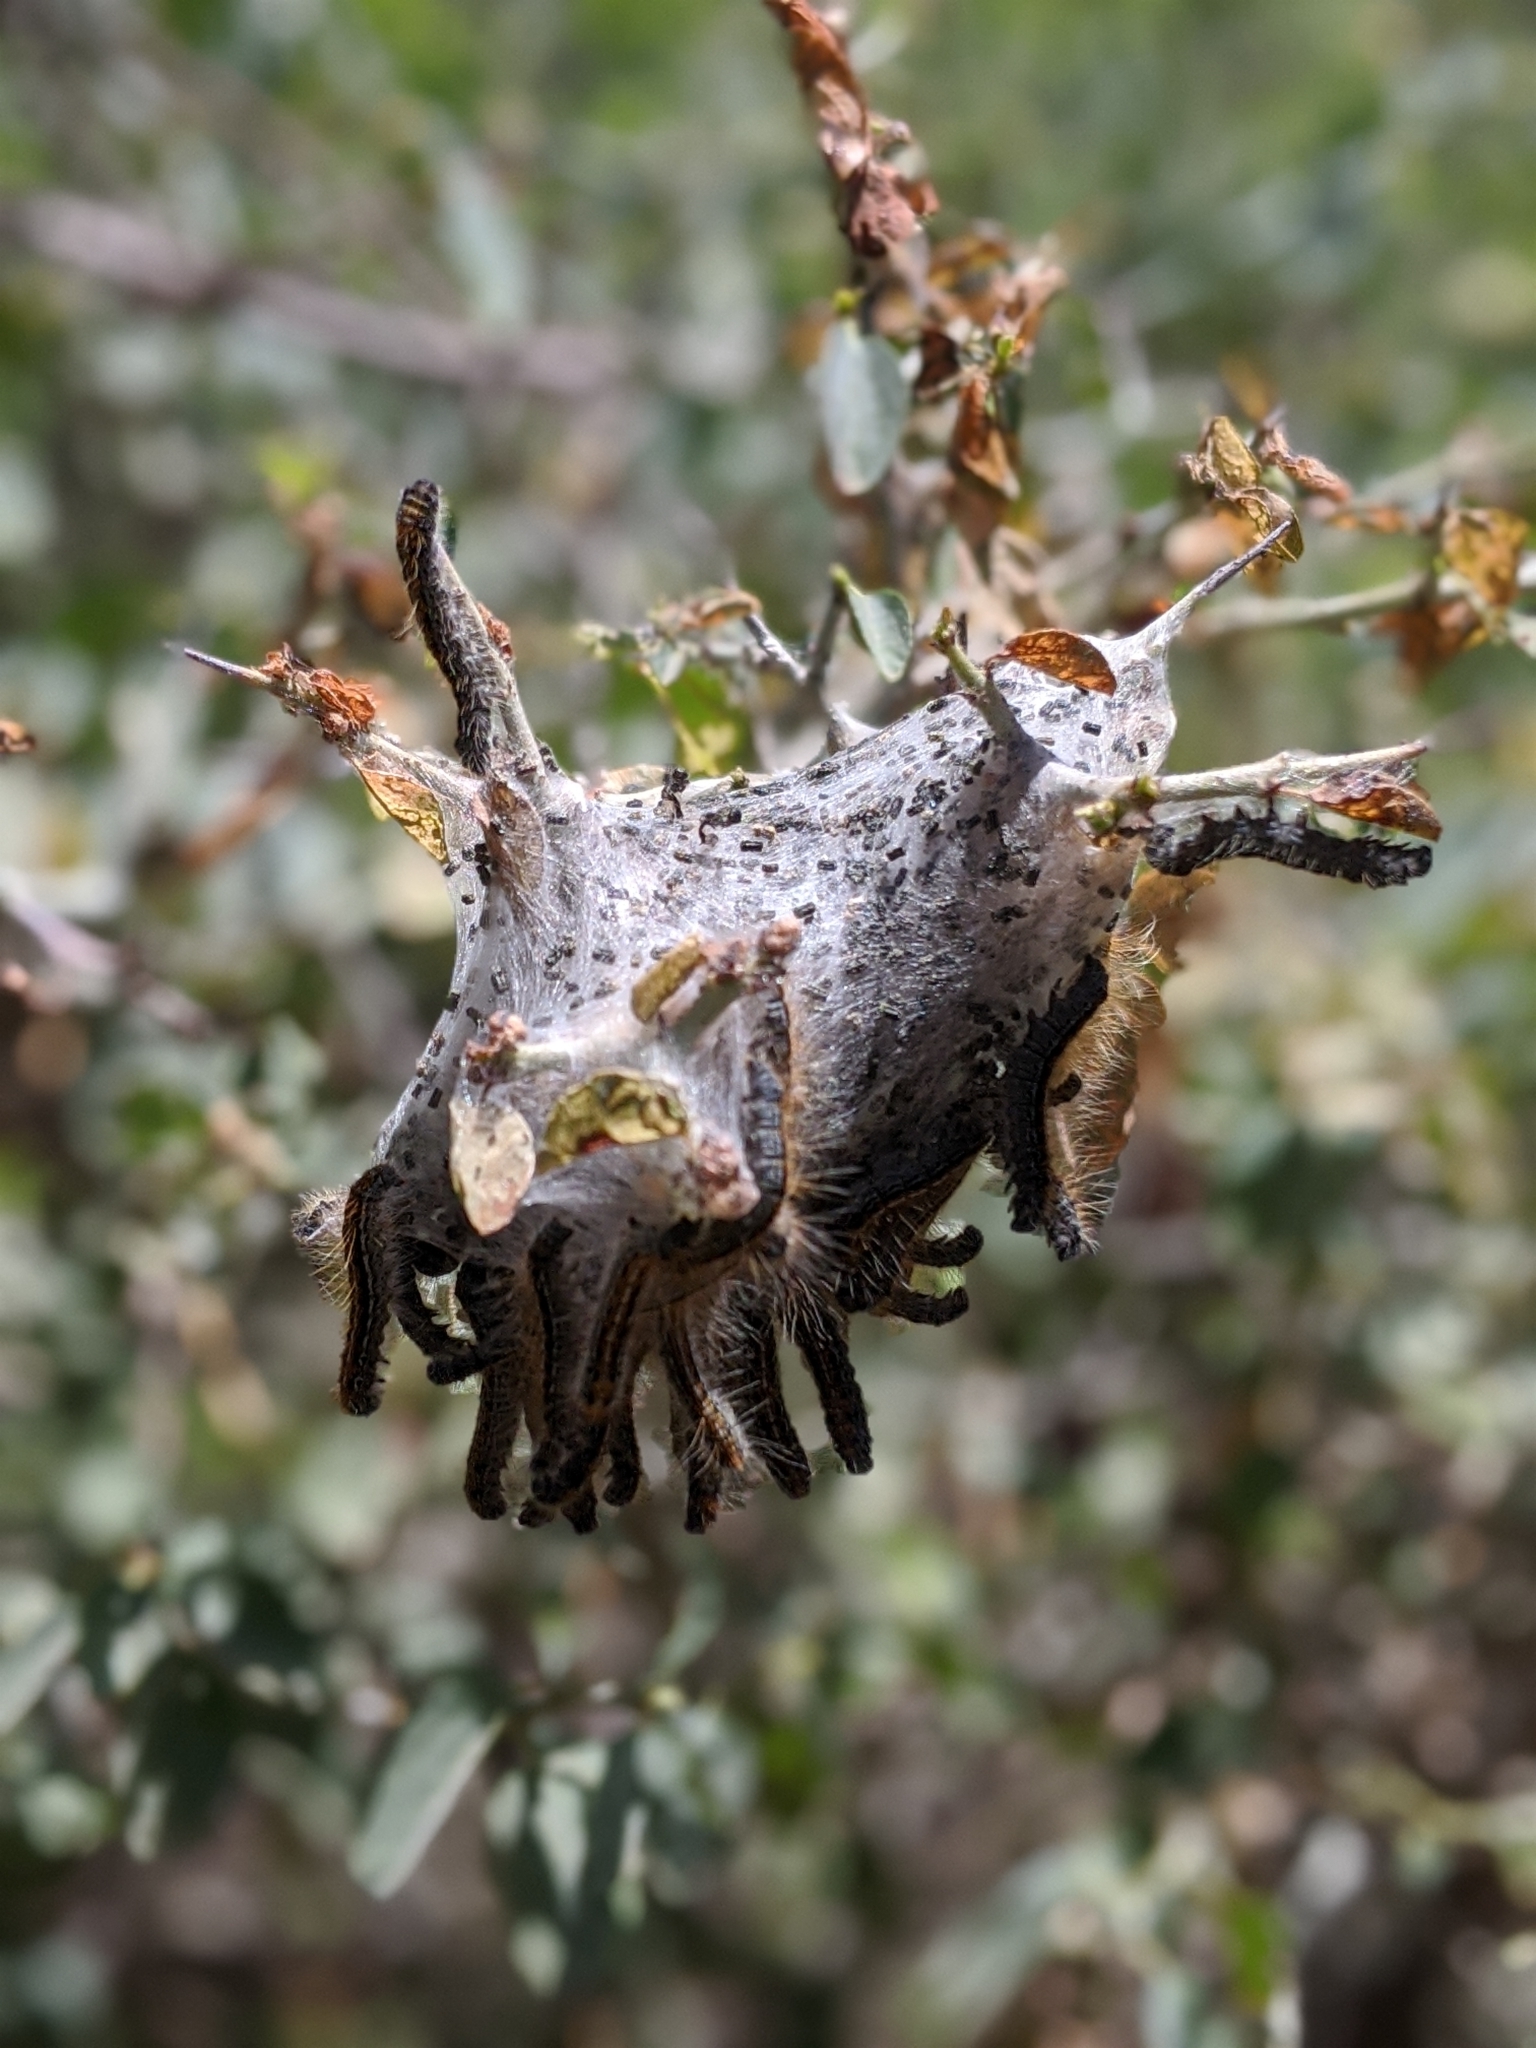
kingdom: Animalia
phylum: Arthropoda
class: Insecta
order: Lepidoptera
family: Lasiocampidae
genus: Malacosoma
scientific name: Malacosoma californica
